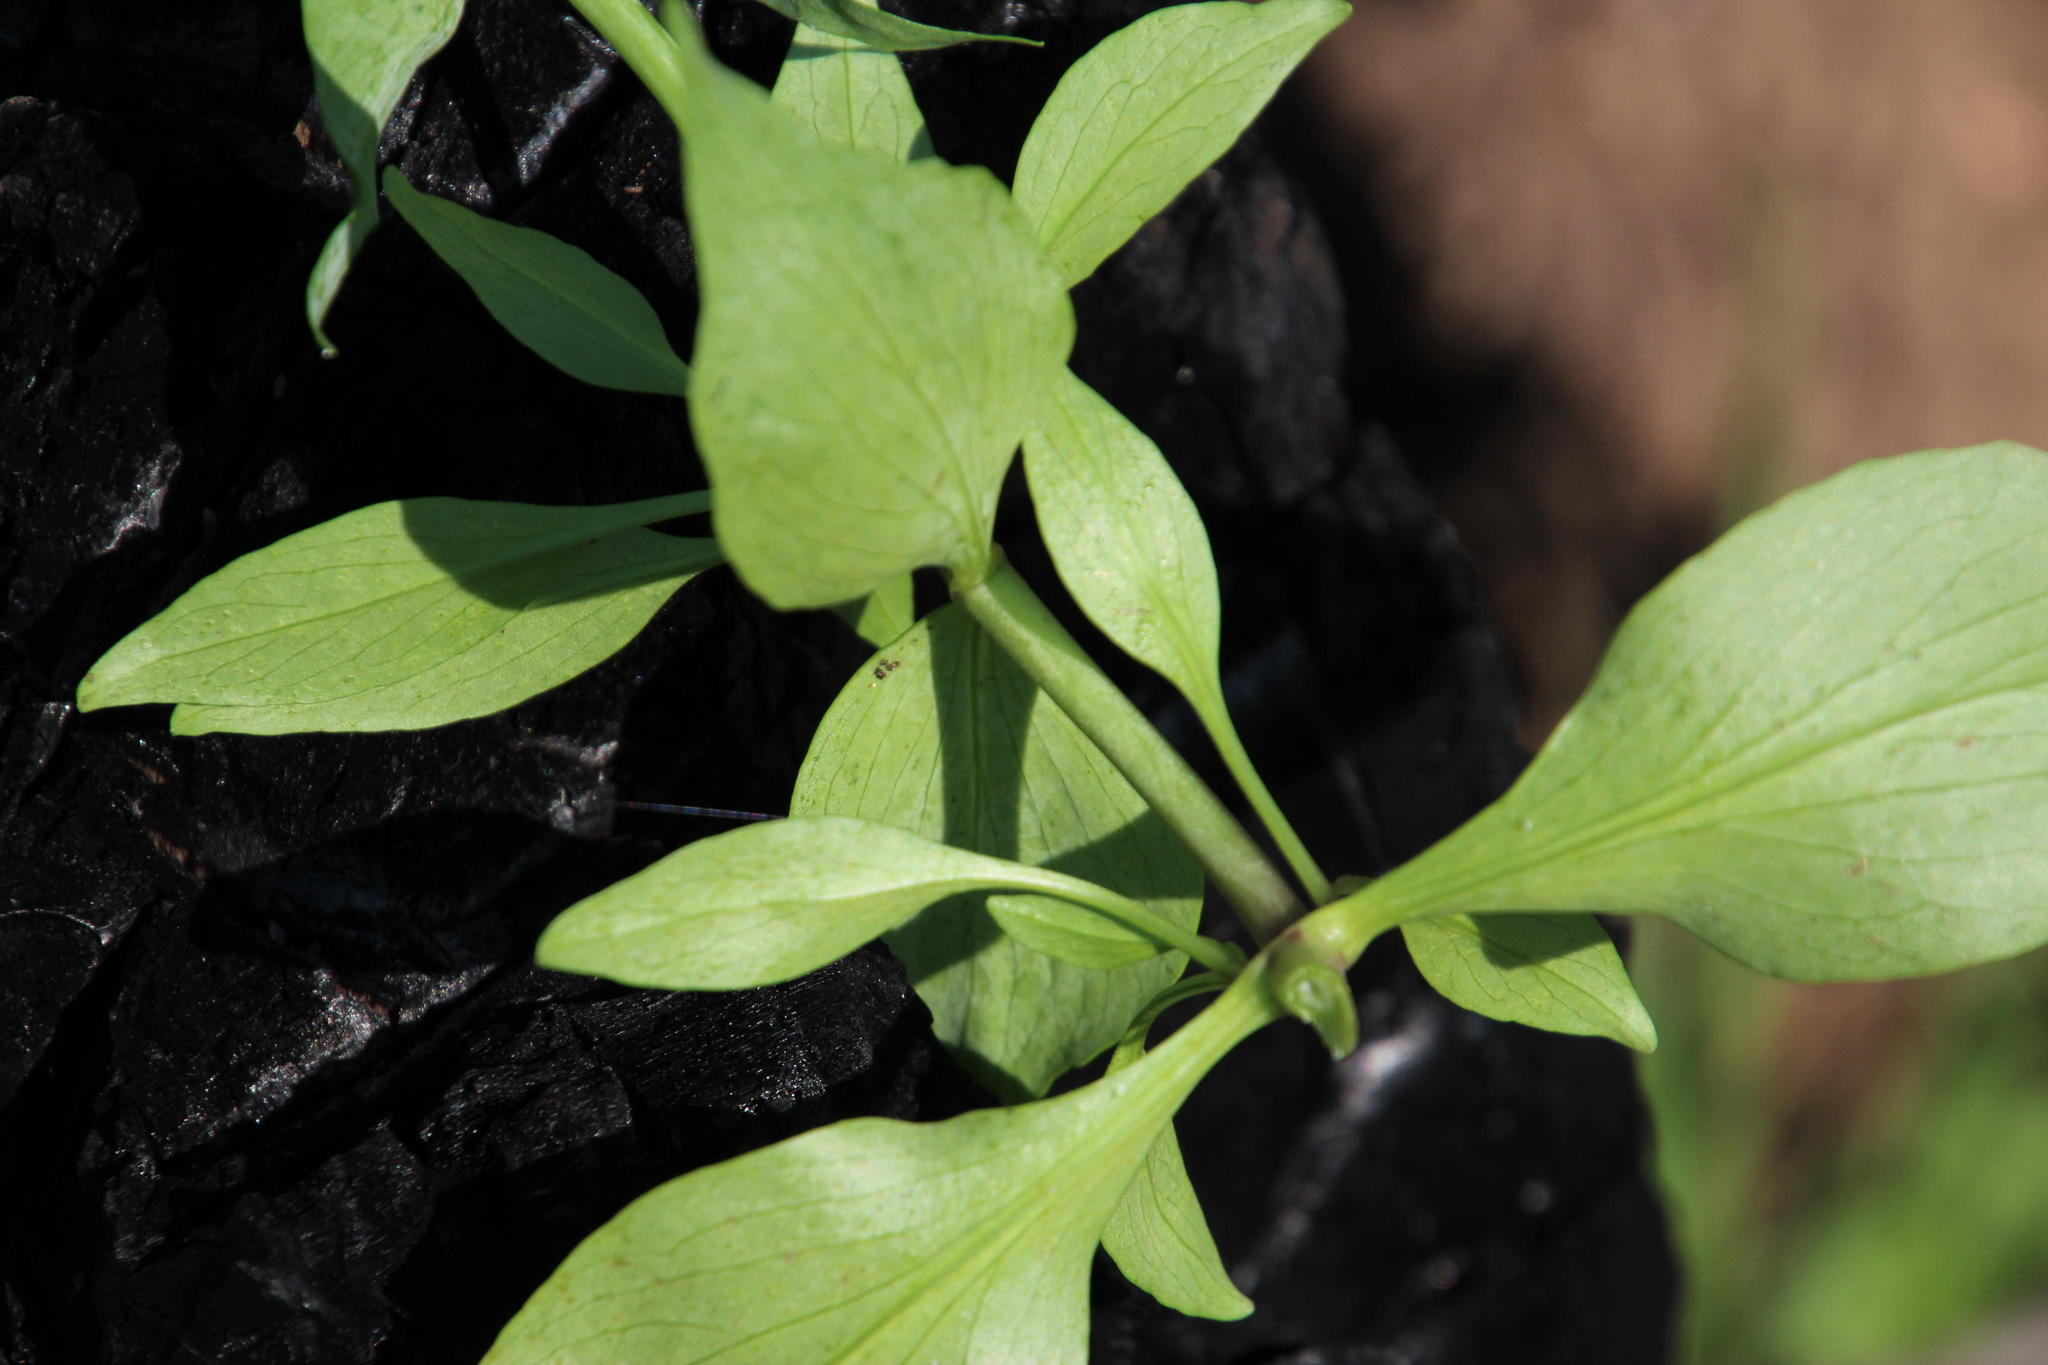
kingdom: Plantae
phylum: Tracheophyta
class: Magnoliopsida
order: Dipsacales
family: Caprifoliaceae
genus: Centranthus
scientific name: Centranthus ruber
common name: Red valerian
